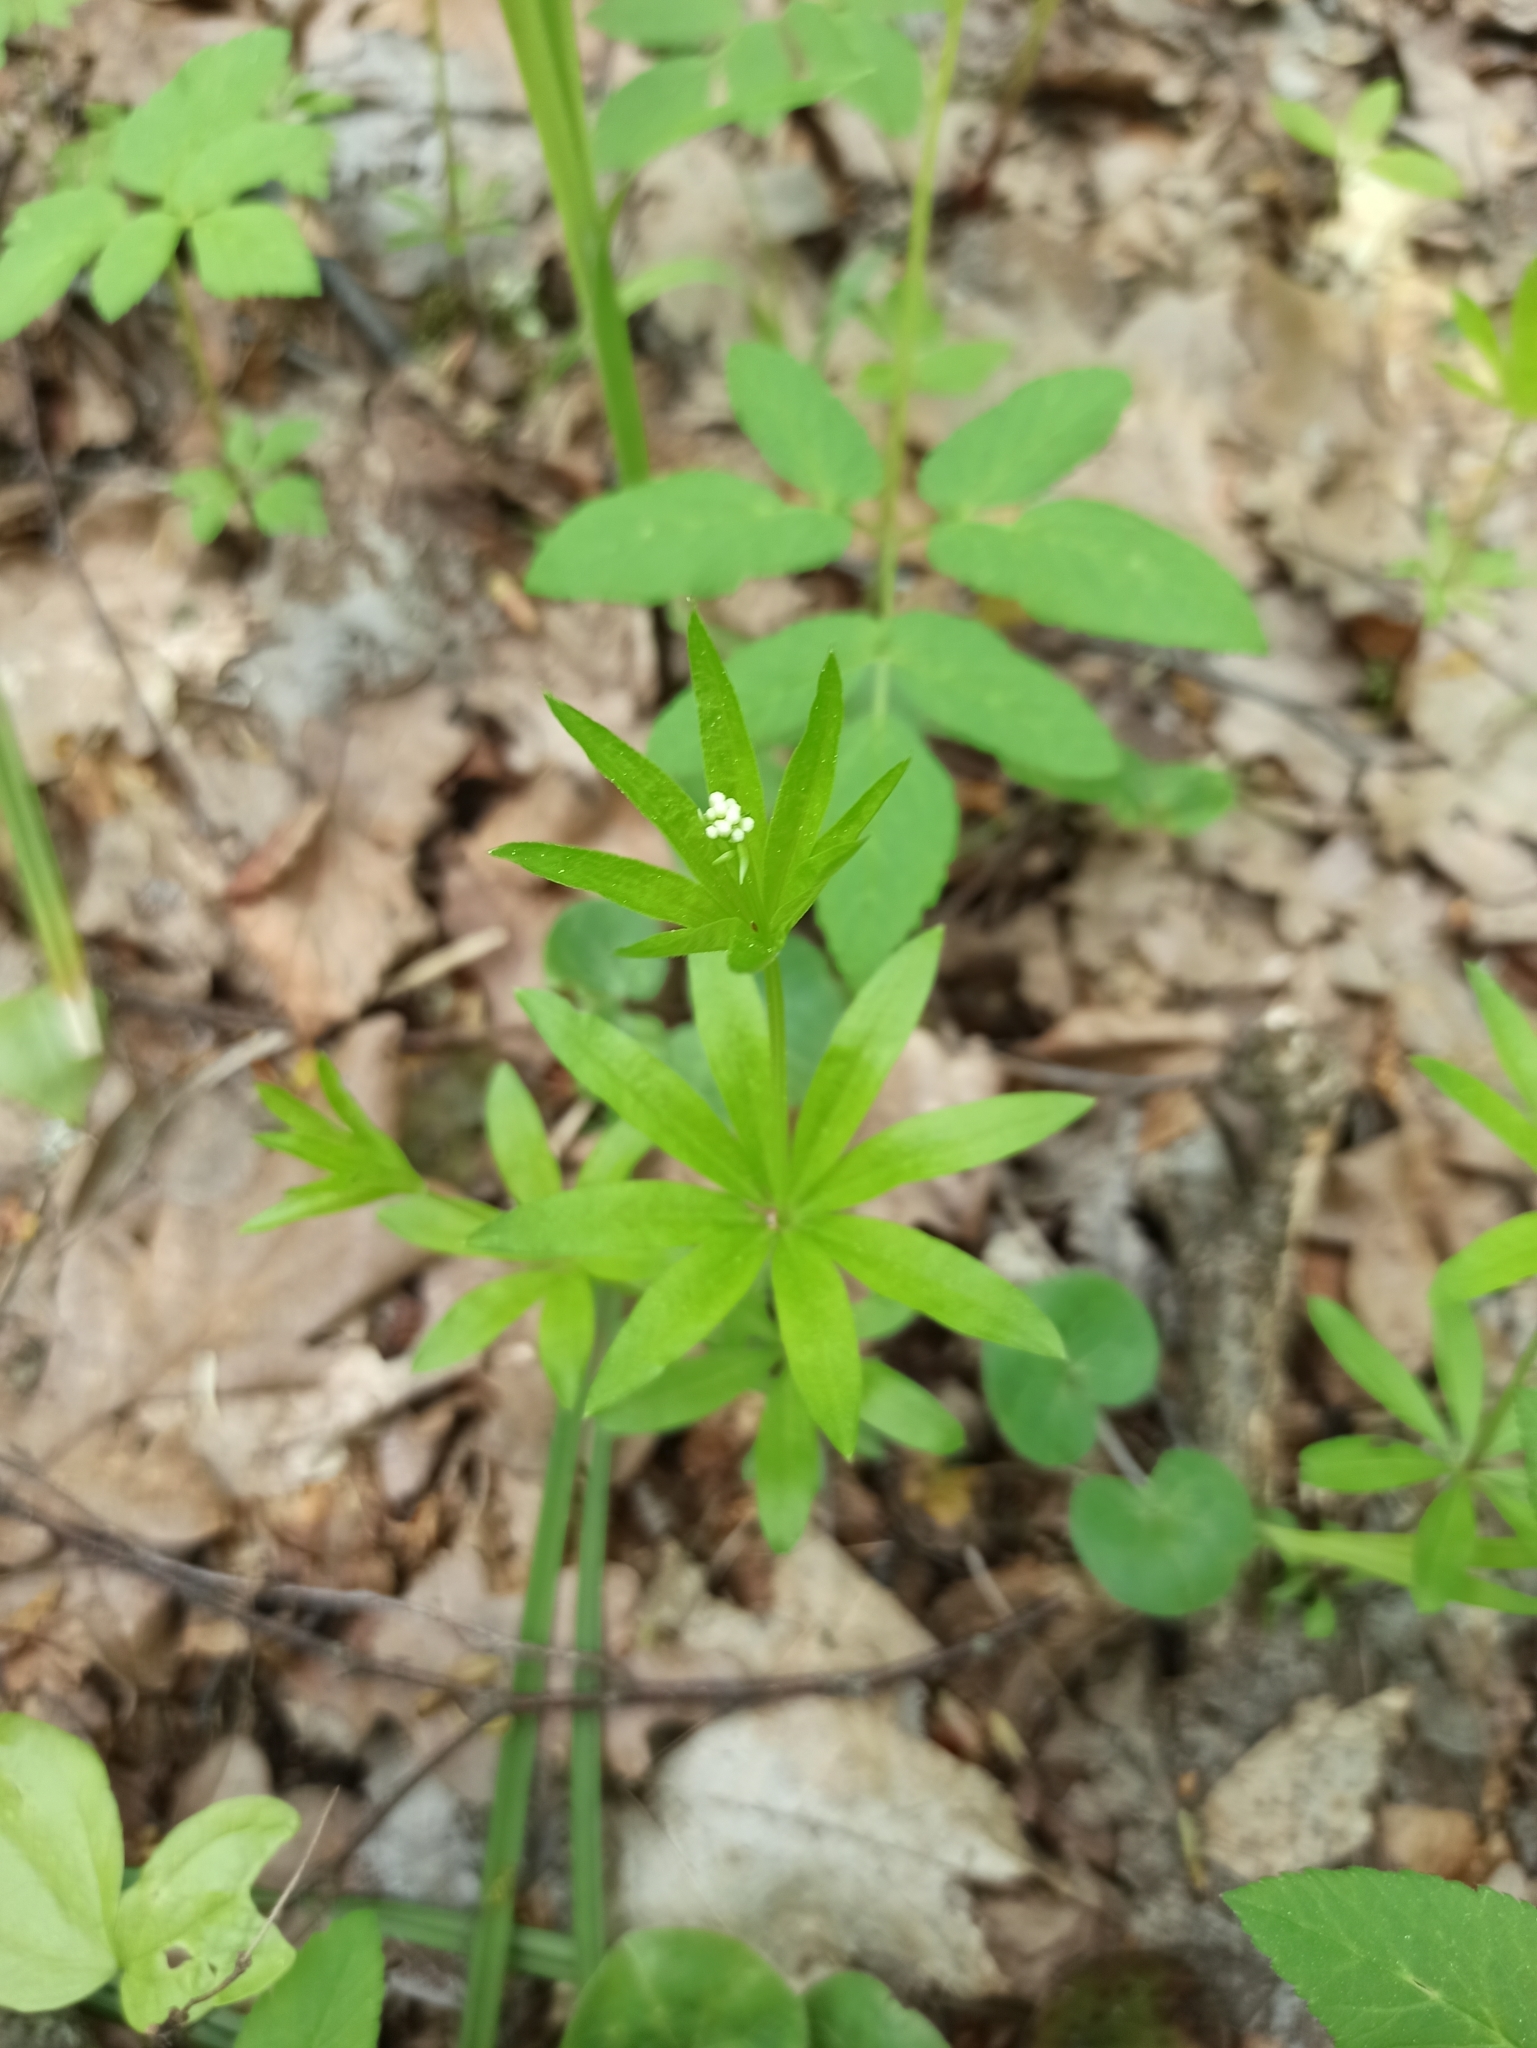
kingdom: Plantae
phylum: Tracheophyta
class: Magnoliopsida
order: Gentianales
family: Rubiaceae
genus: Galium
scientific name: Galium odoratum
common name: Sweet woodruff
